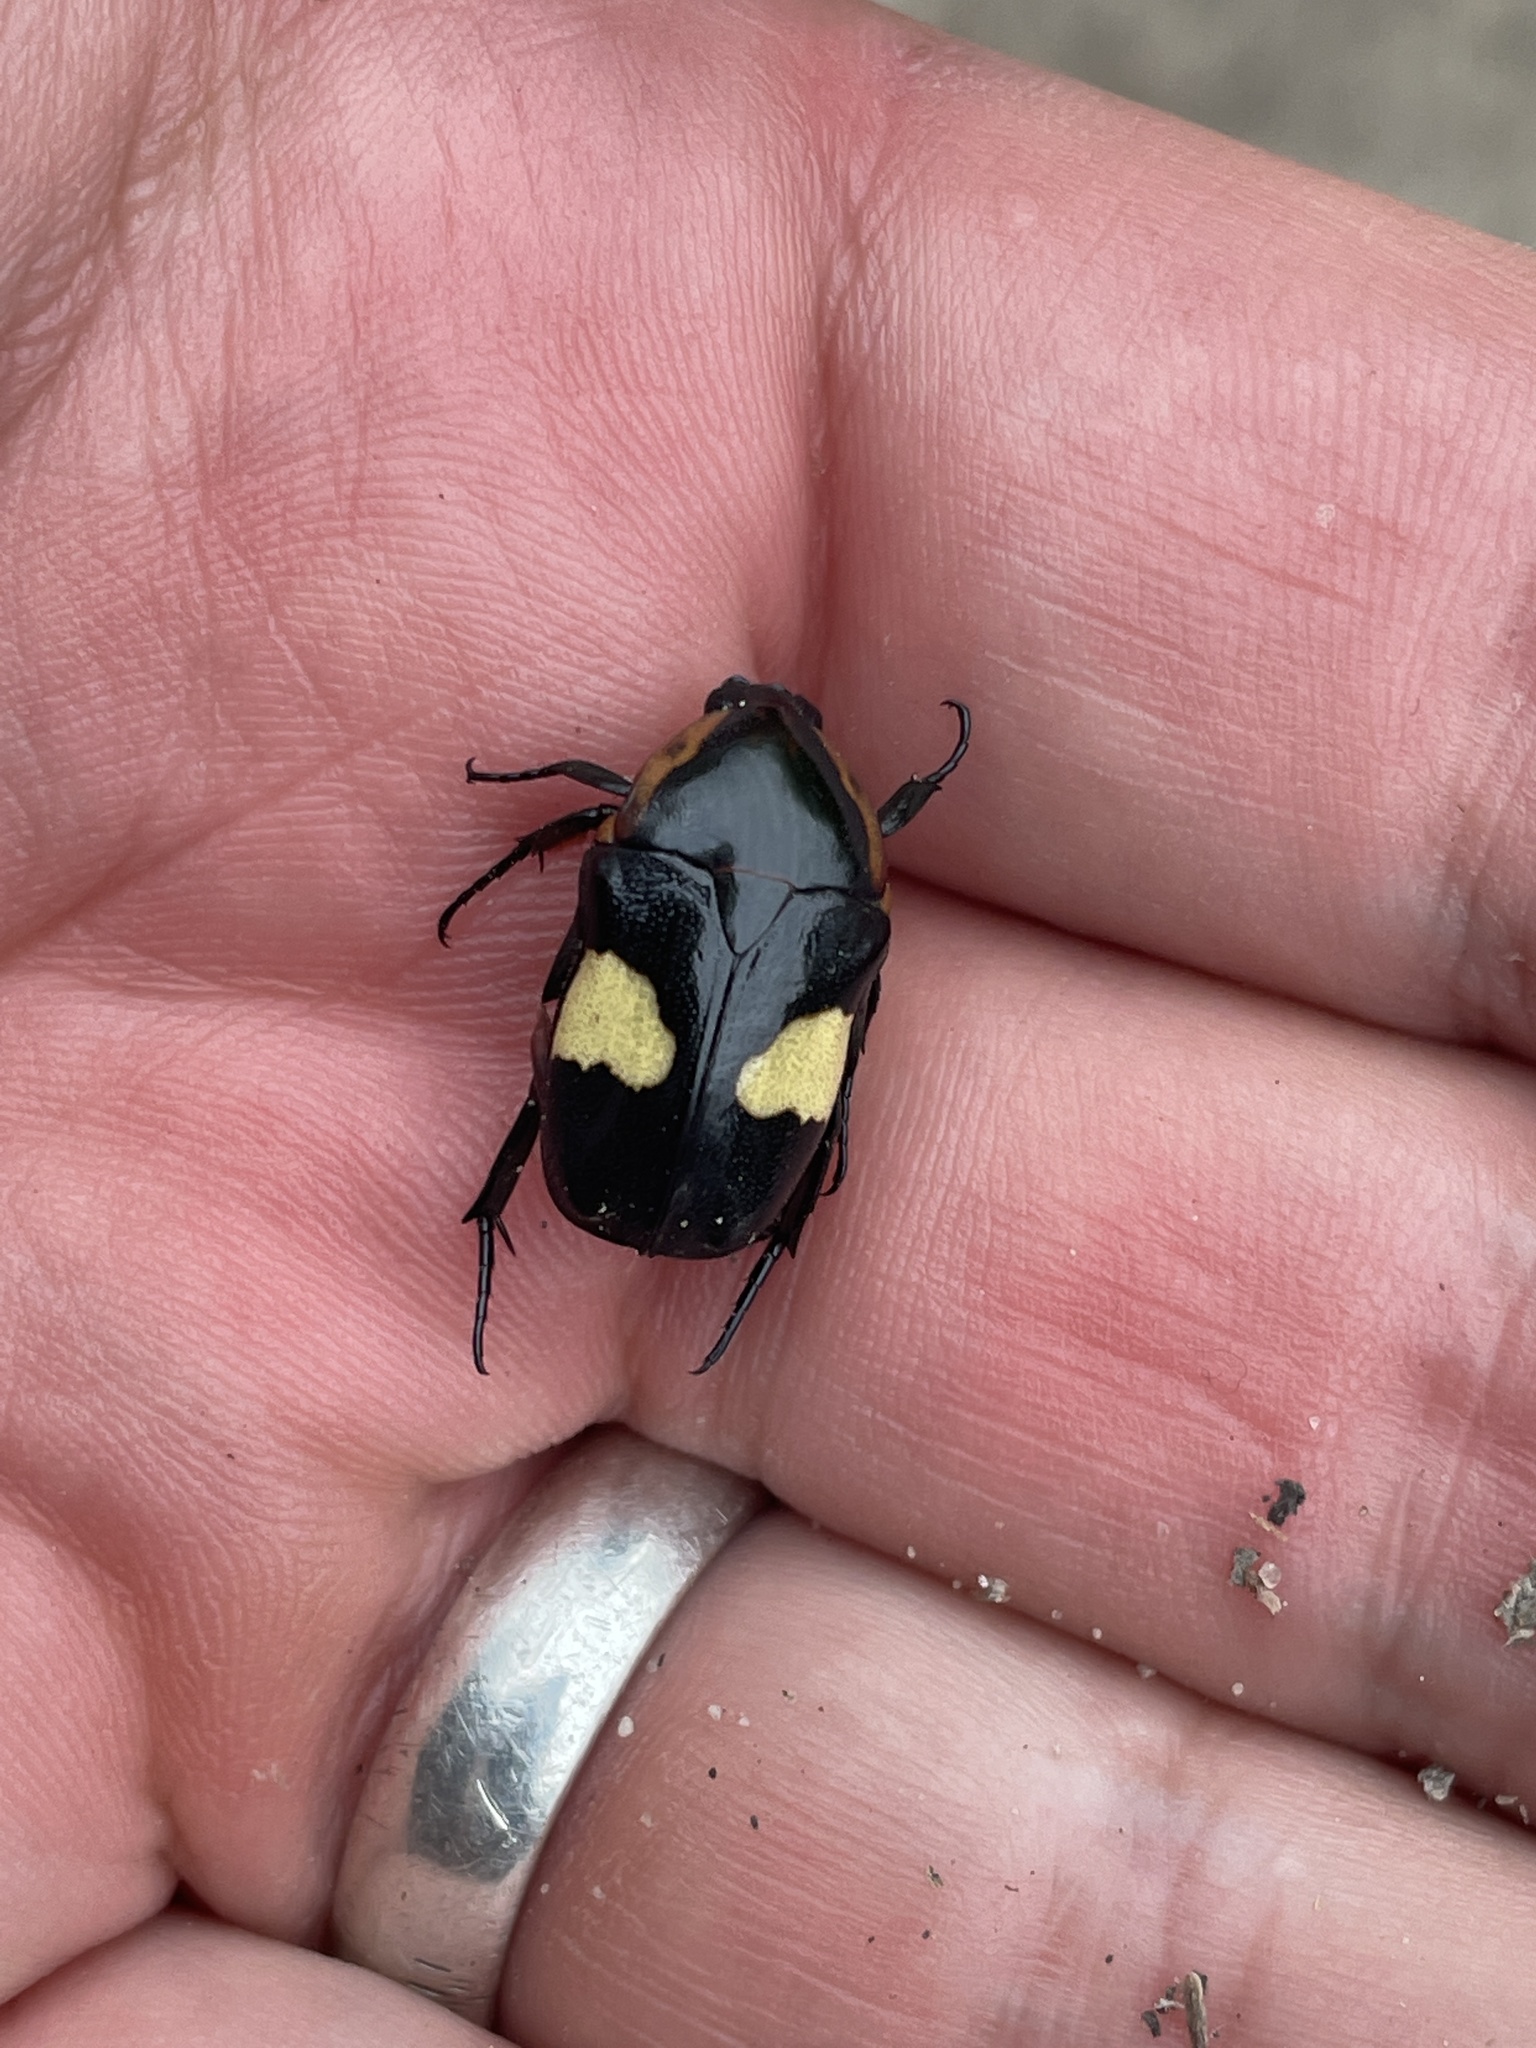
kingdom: Animalia
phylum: Arthropoda
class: Insecta
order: Coleoptera
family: Scarabaeidae
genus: Pedinorrhina
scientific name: Pedinorrhina
